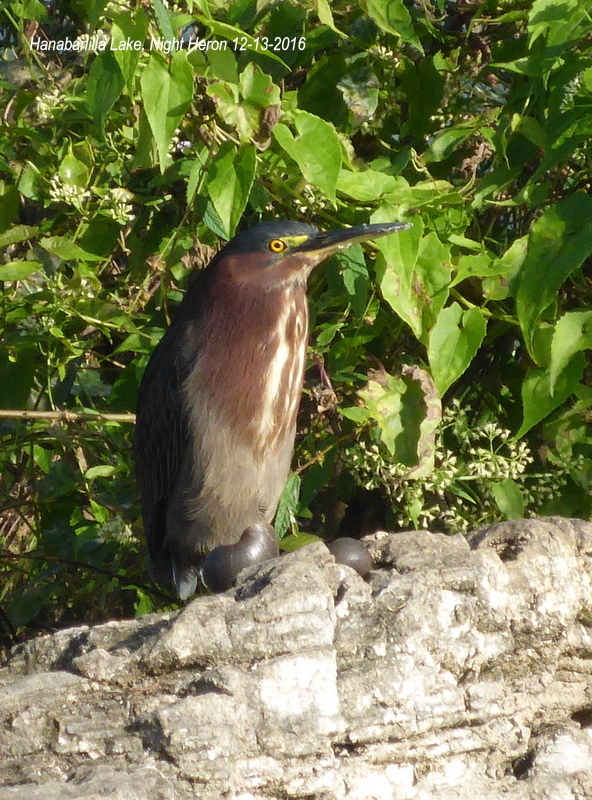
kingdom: Animalia
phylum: Chordata
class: Aves
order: Pelecaniformes
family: Ardeidae
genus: Butorides
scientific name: Butorides virescens
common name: Green heron
